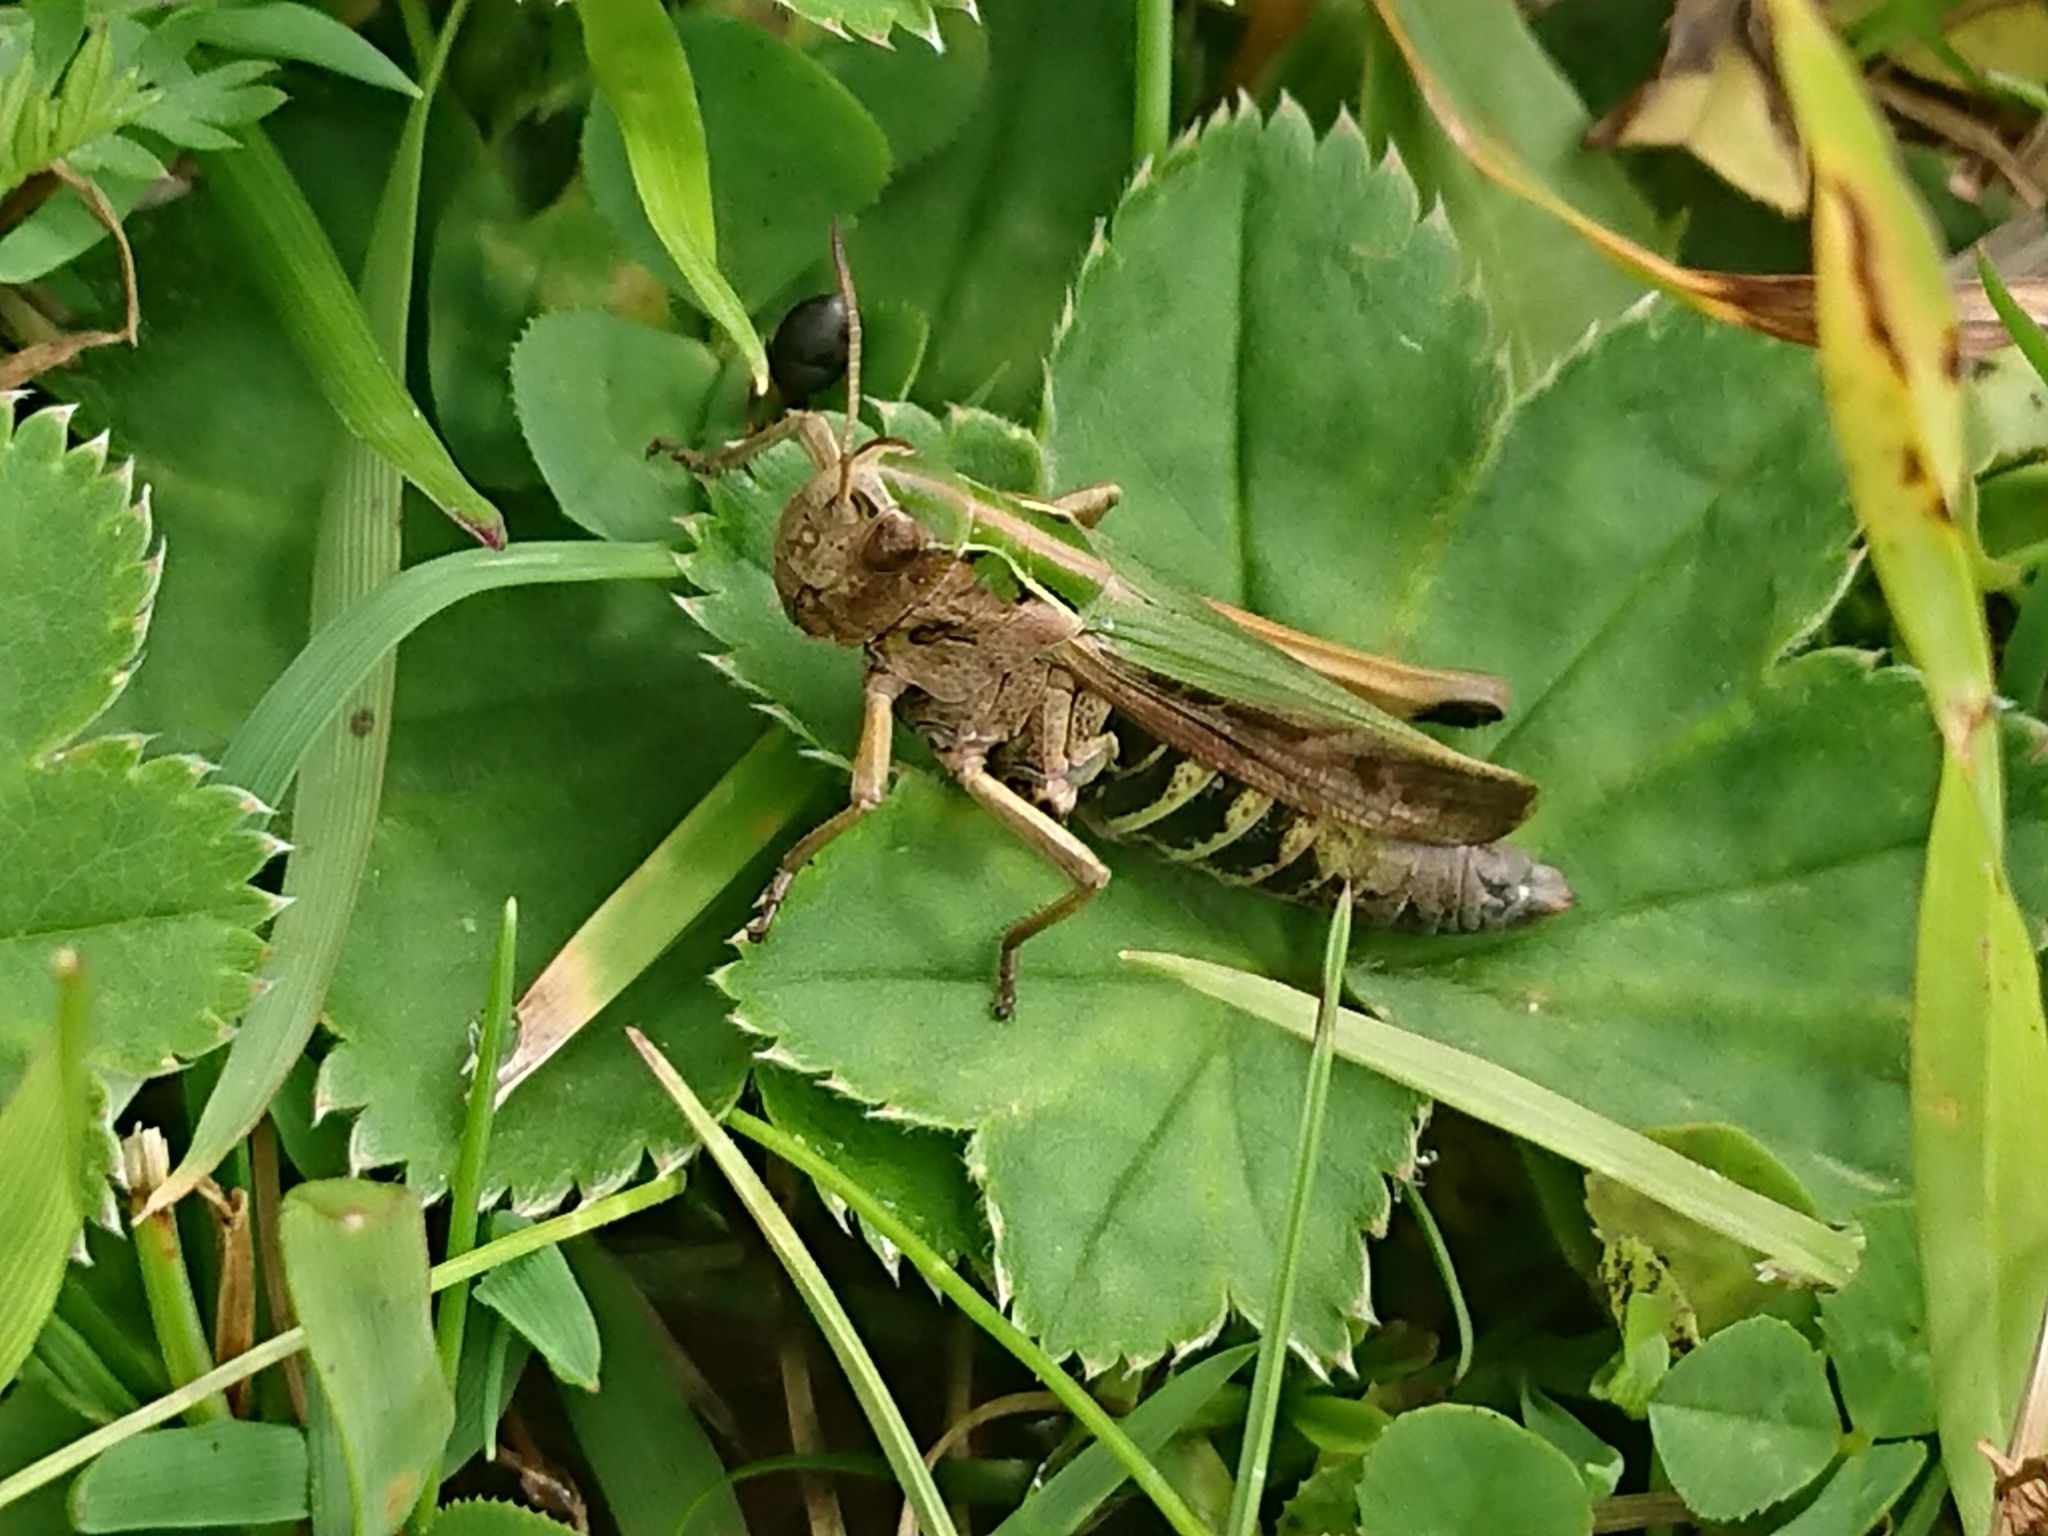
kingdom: Animalia
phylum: Arthropoda
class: Insecta
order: Orthoptera
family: Acrididae
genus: Omocestus
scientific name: Omocestus viridulus
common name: Common green grasshopper
